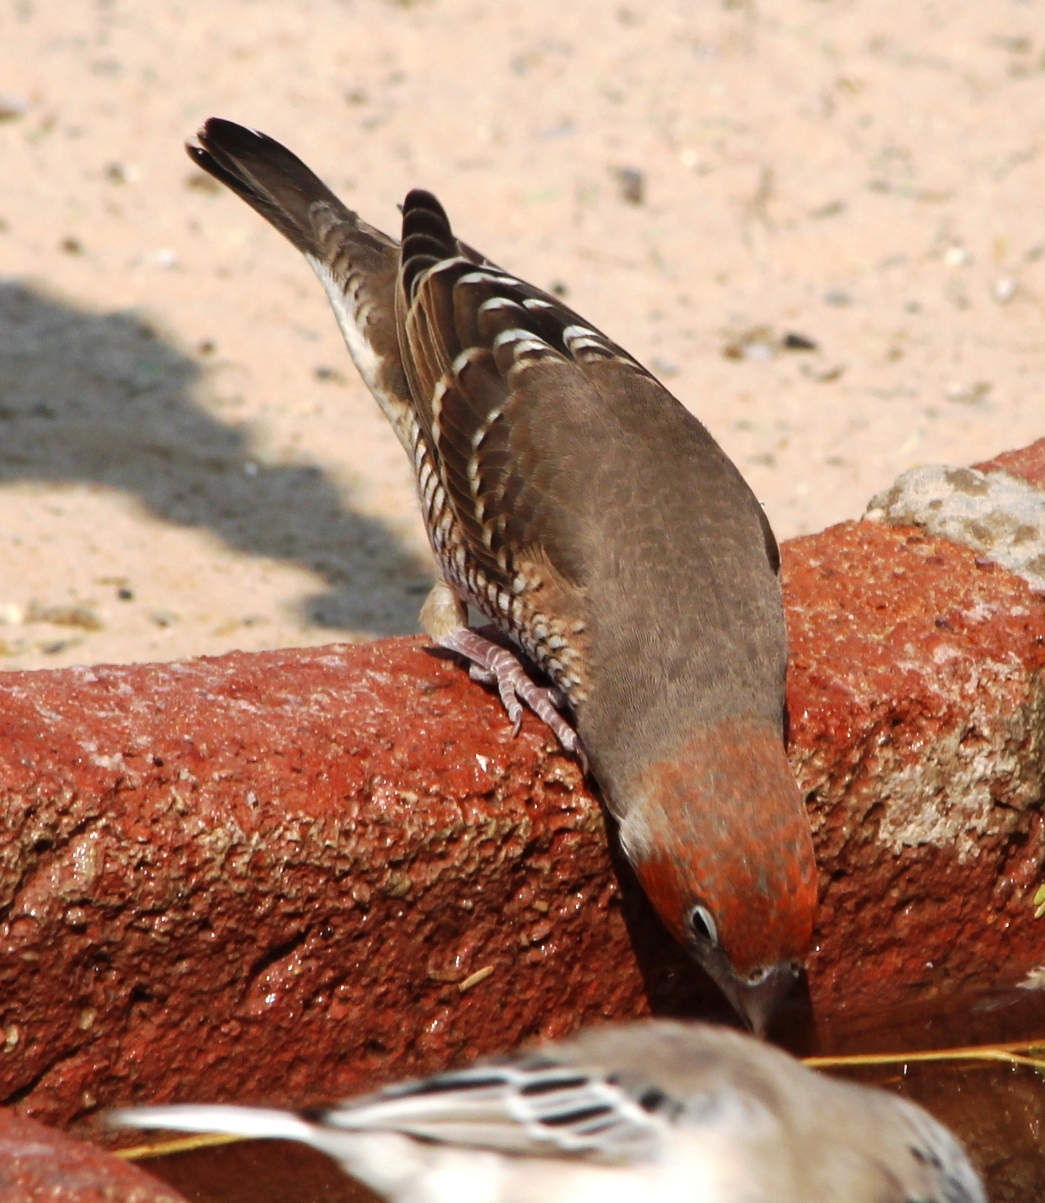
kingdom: Animalia
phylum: Chordata
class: Aves
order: Passeriformes
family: Estrildidae
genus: Amadina
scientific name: Amadina erythrocephala
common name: Red-headed finch
